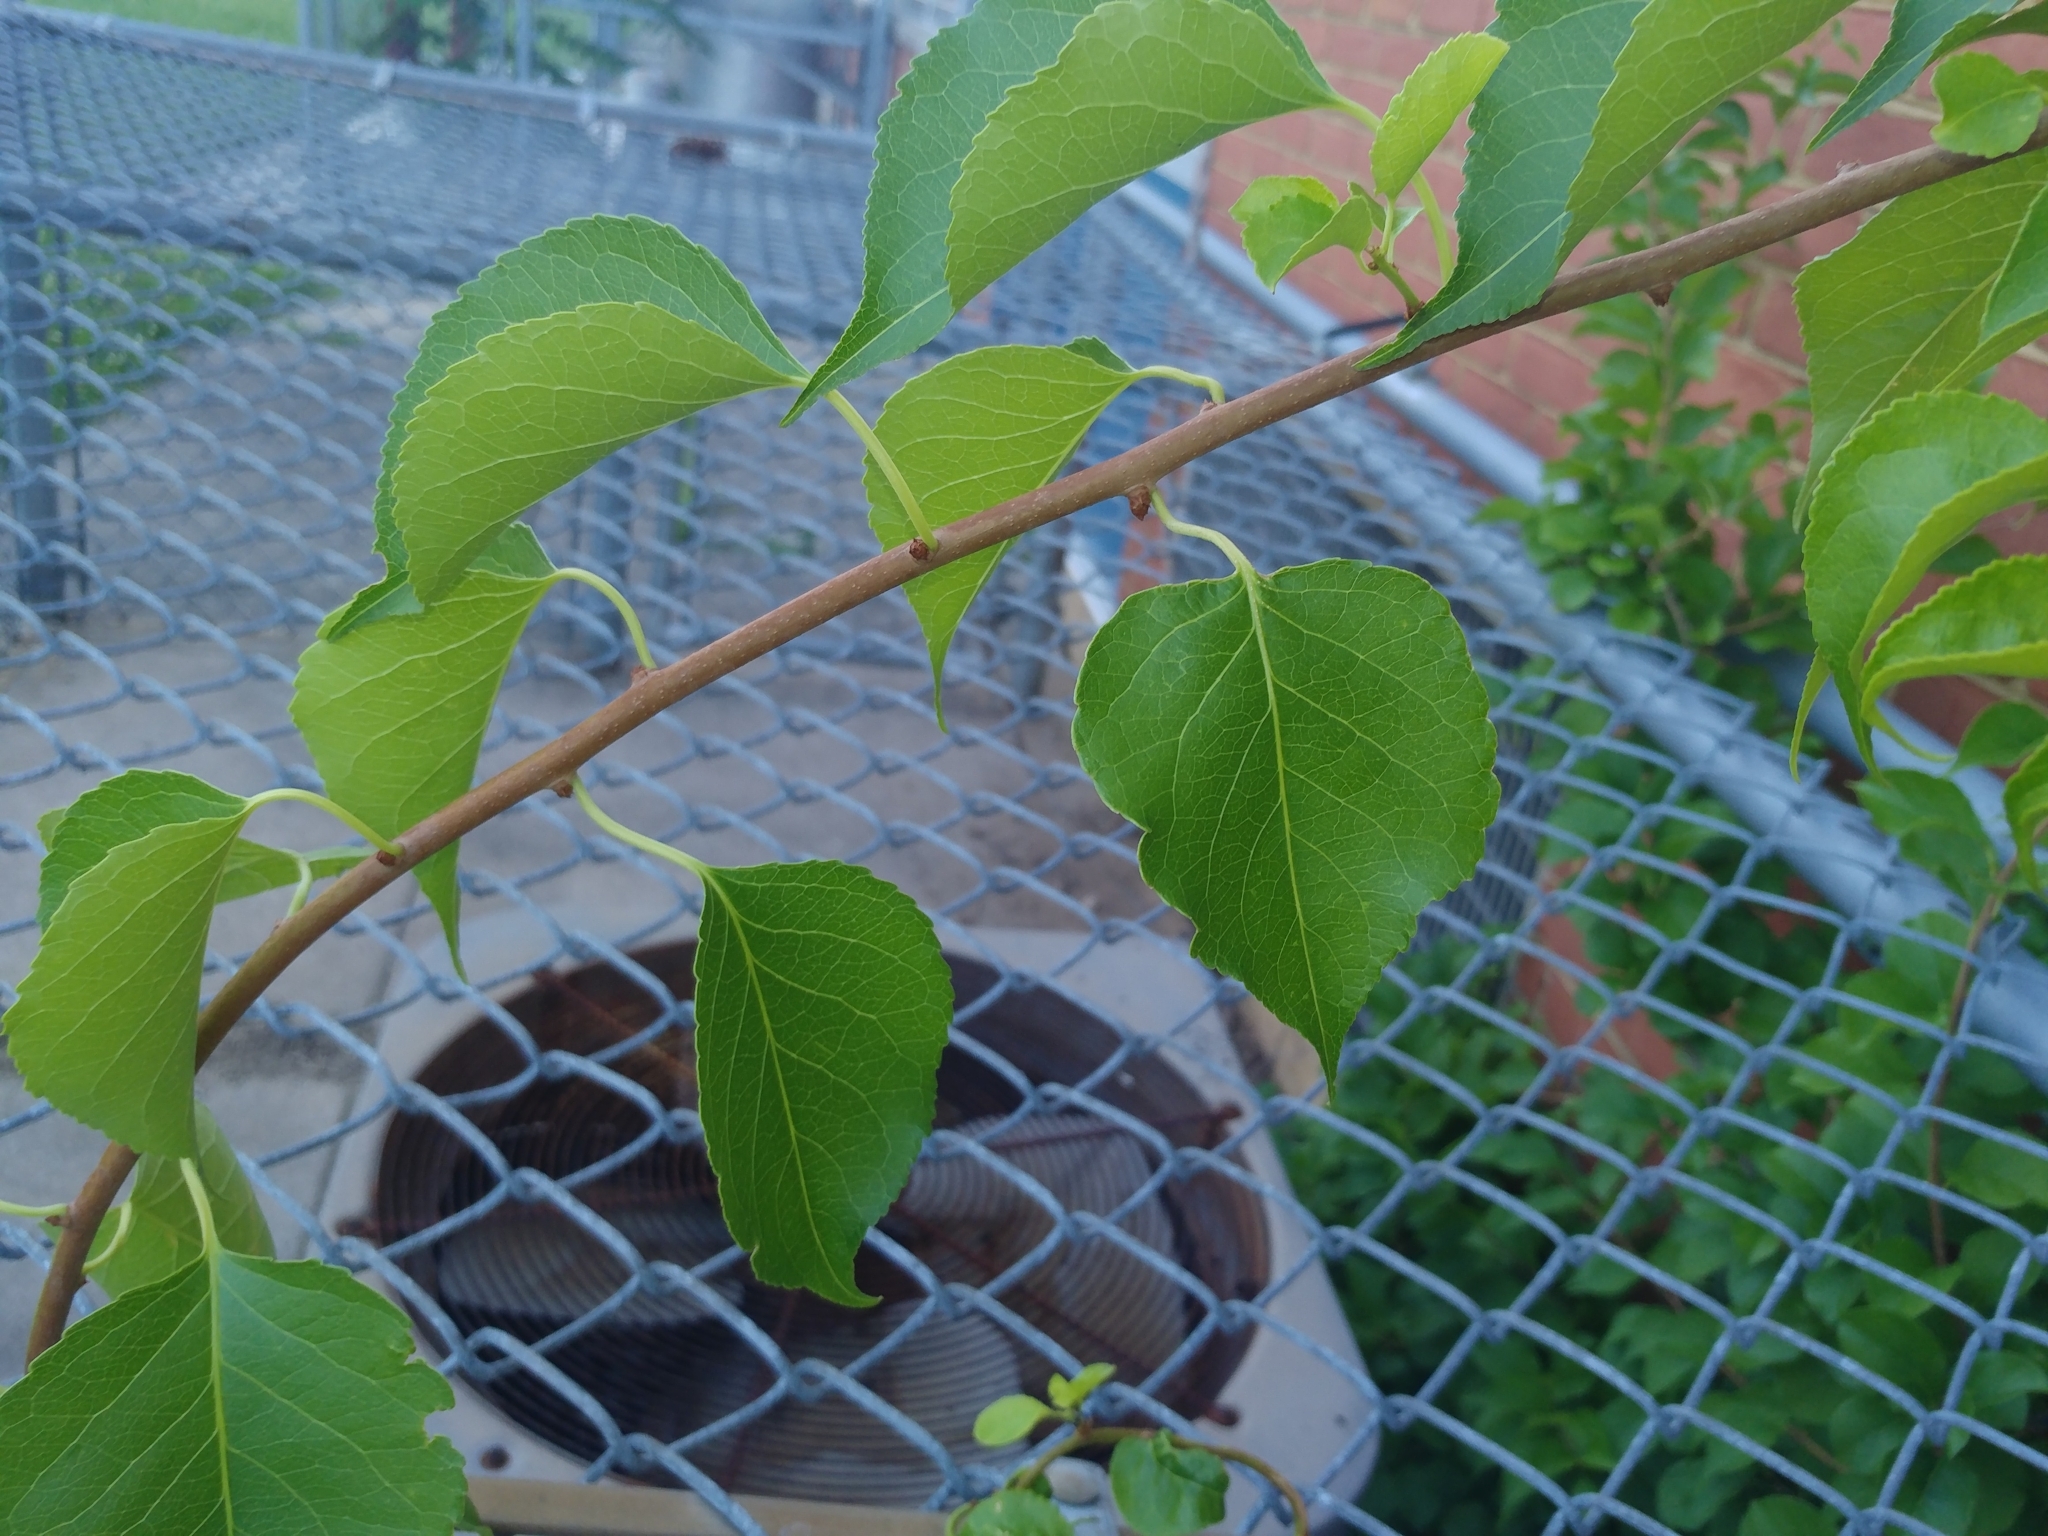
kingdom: Plantae
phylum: Tracheophyta
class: Magnoliopsida
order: Celastrales
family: Celastraceae
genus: Celastrus
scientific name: Celastrus orbiculatus
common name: Oriental bittersweet
